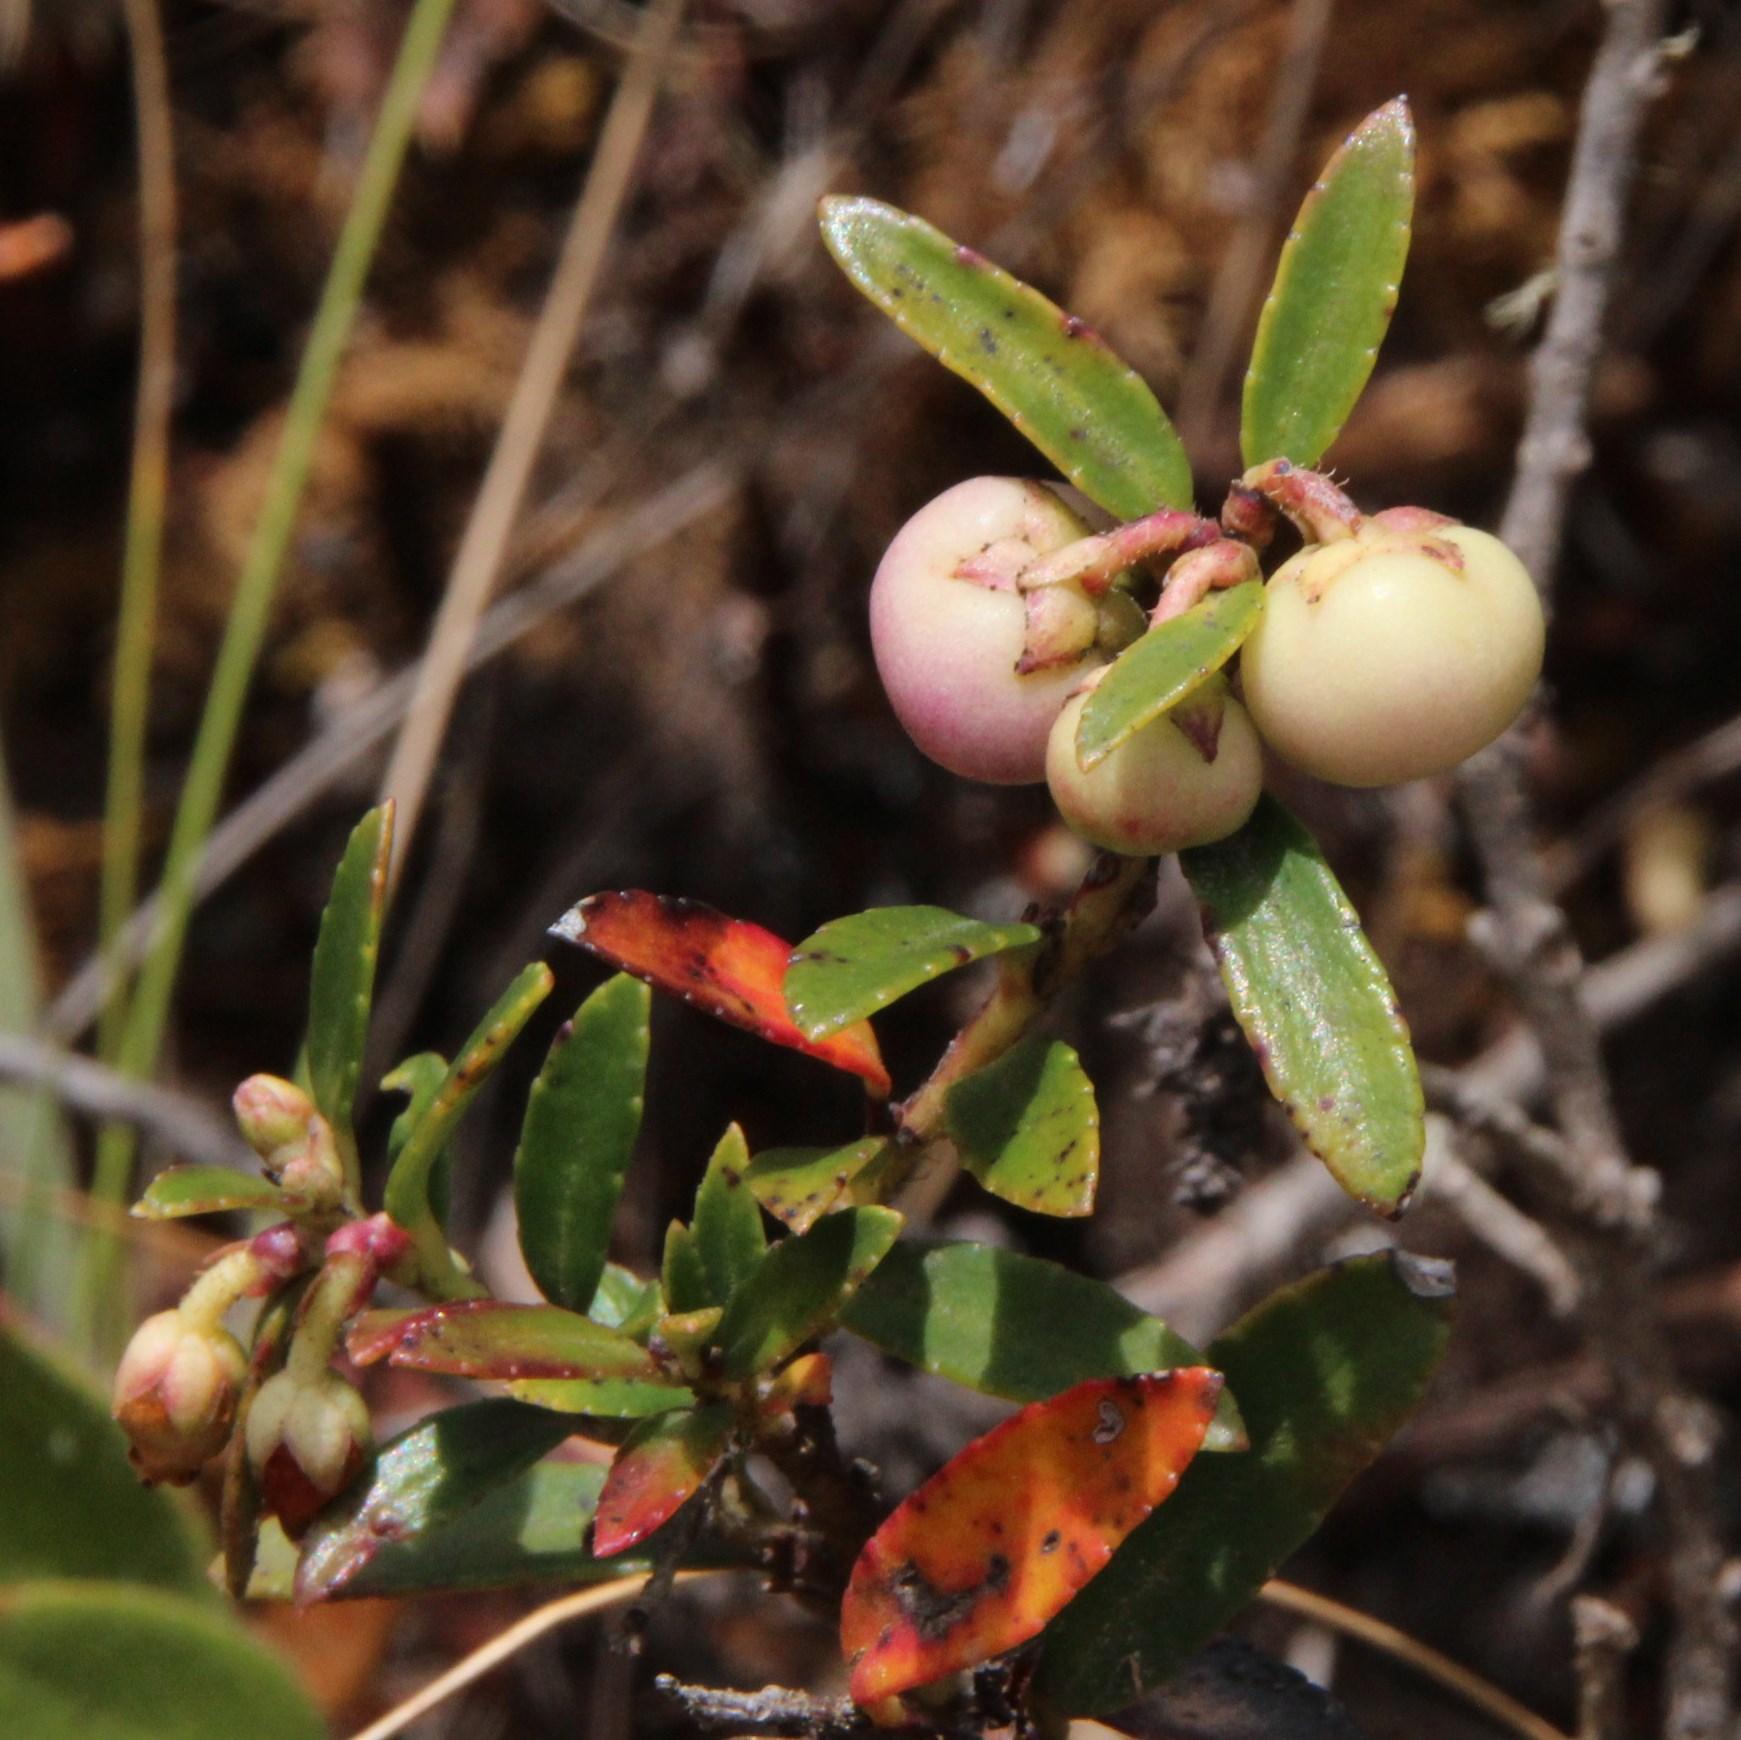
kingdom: Plantae
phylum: Tracheophyta
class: Magnoliopsida
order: Ericales
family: Ericaceae
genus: Gaultheria
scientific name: Gaultheria myrsinoides
